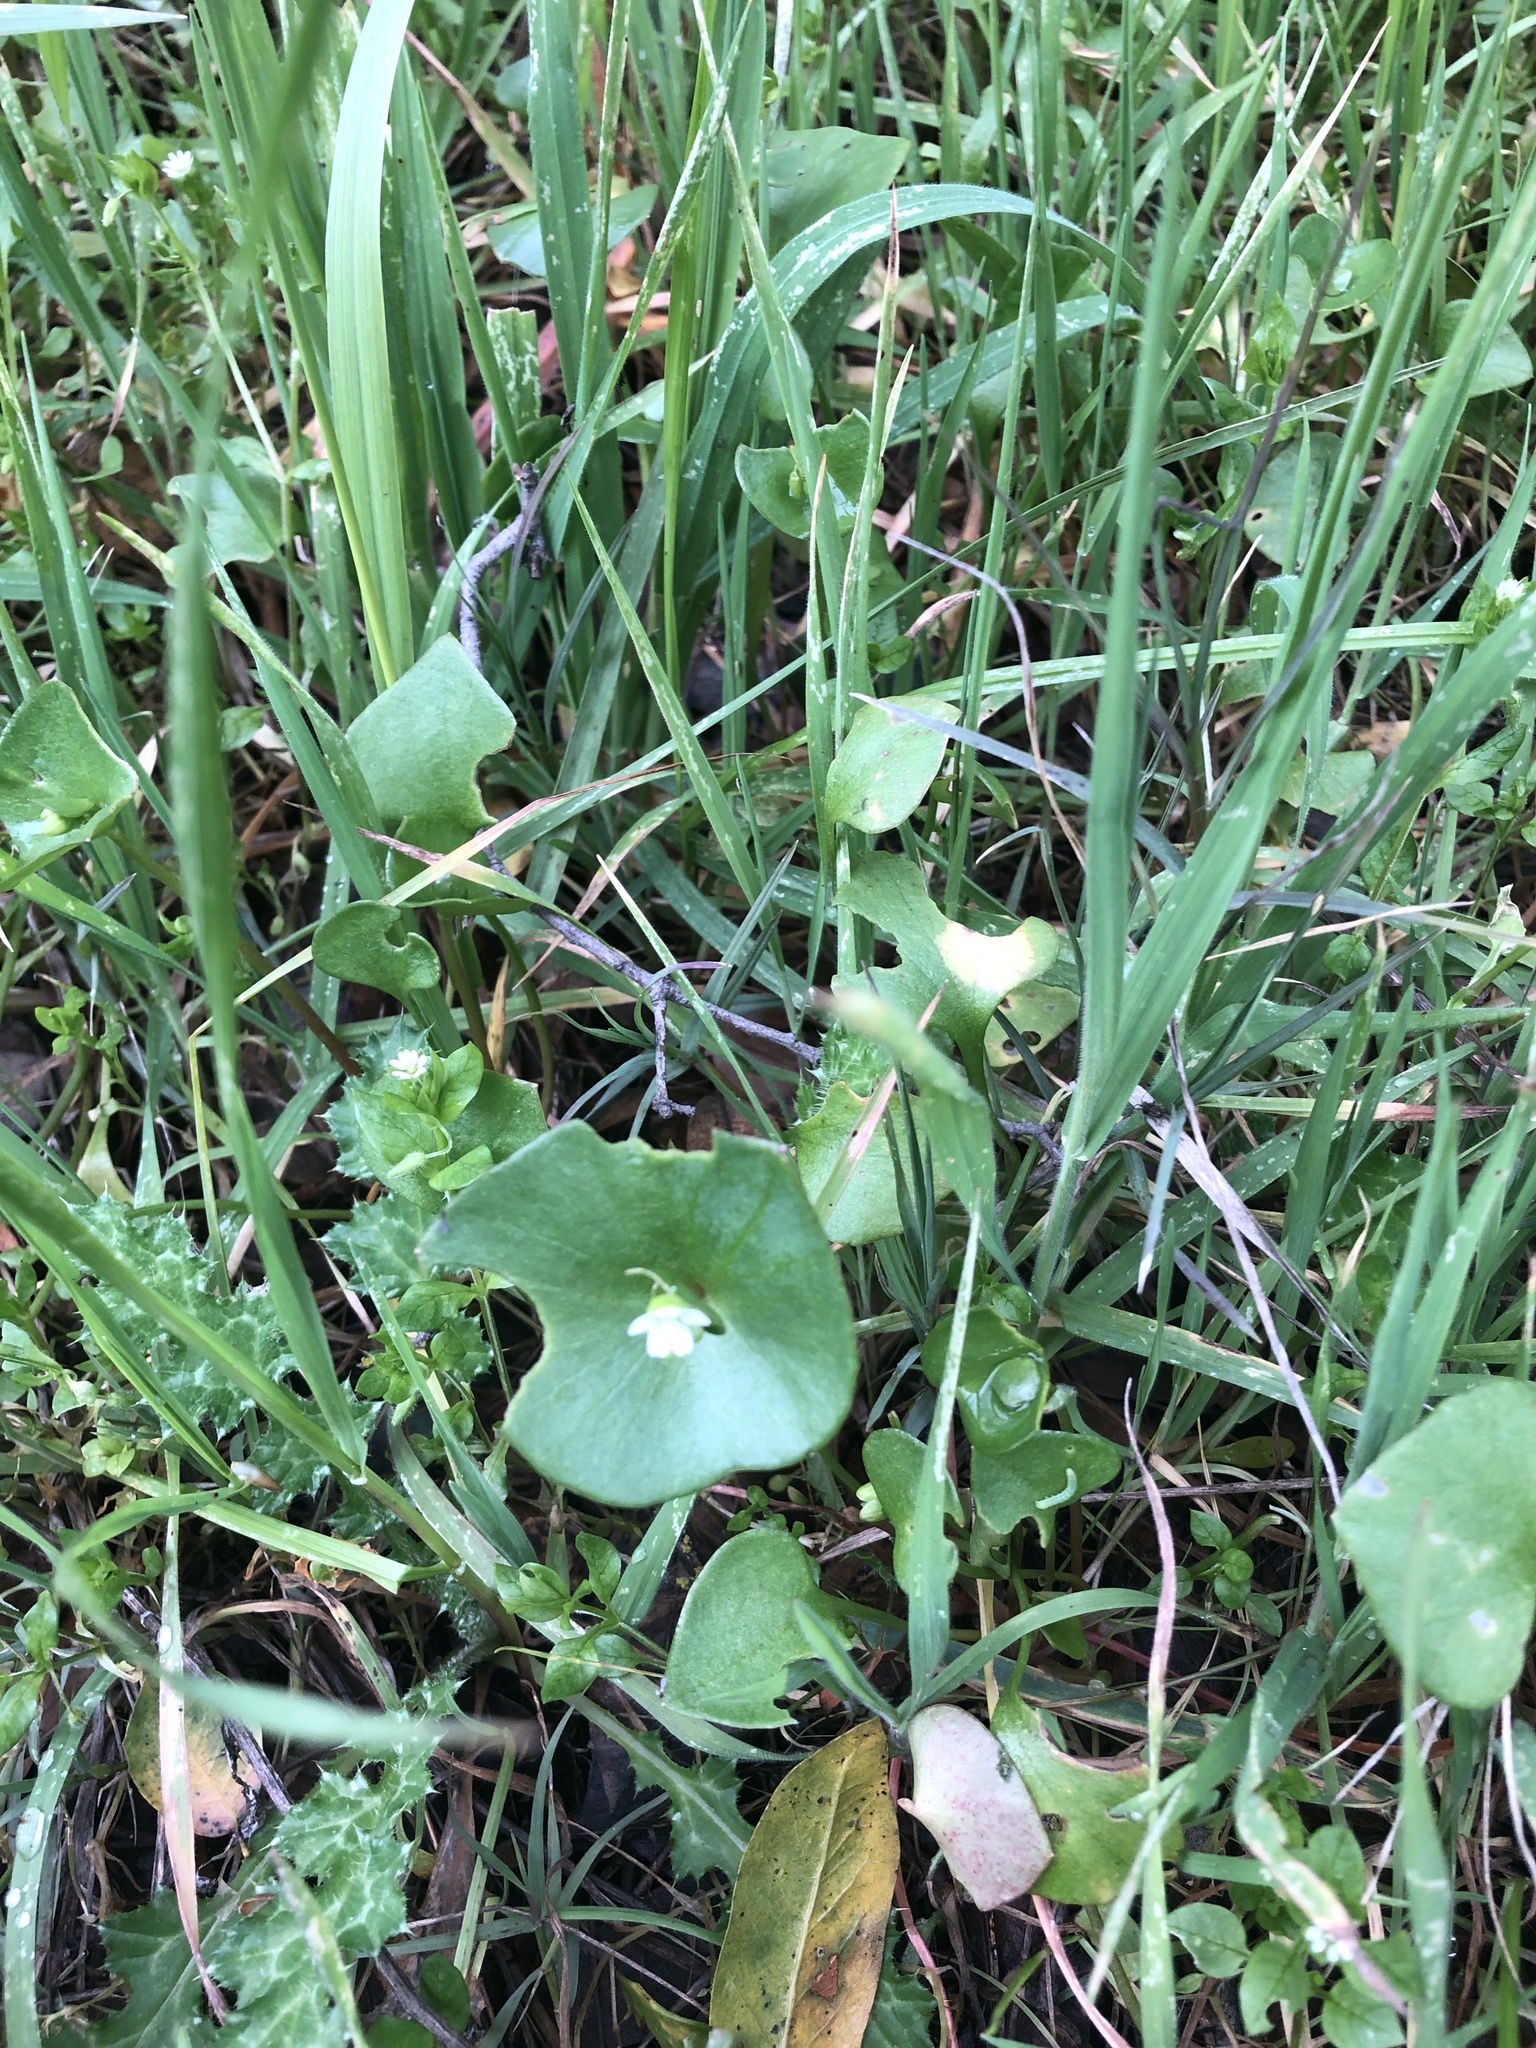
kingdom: Plantae
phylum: Tracheophyta
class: Magnoliopsida
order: Caryophyllales
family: Montiaceae
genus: Claytonia
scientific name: Claytonia perfoliata
